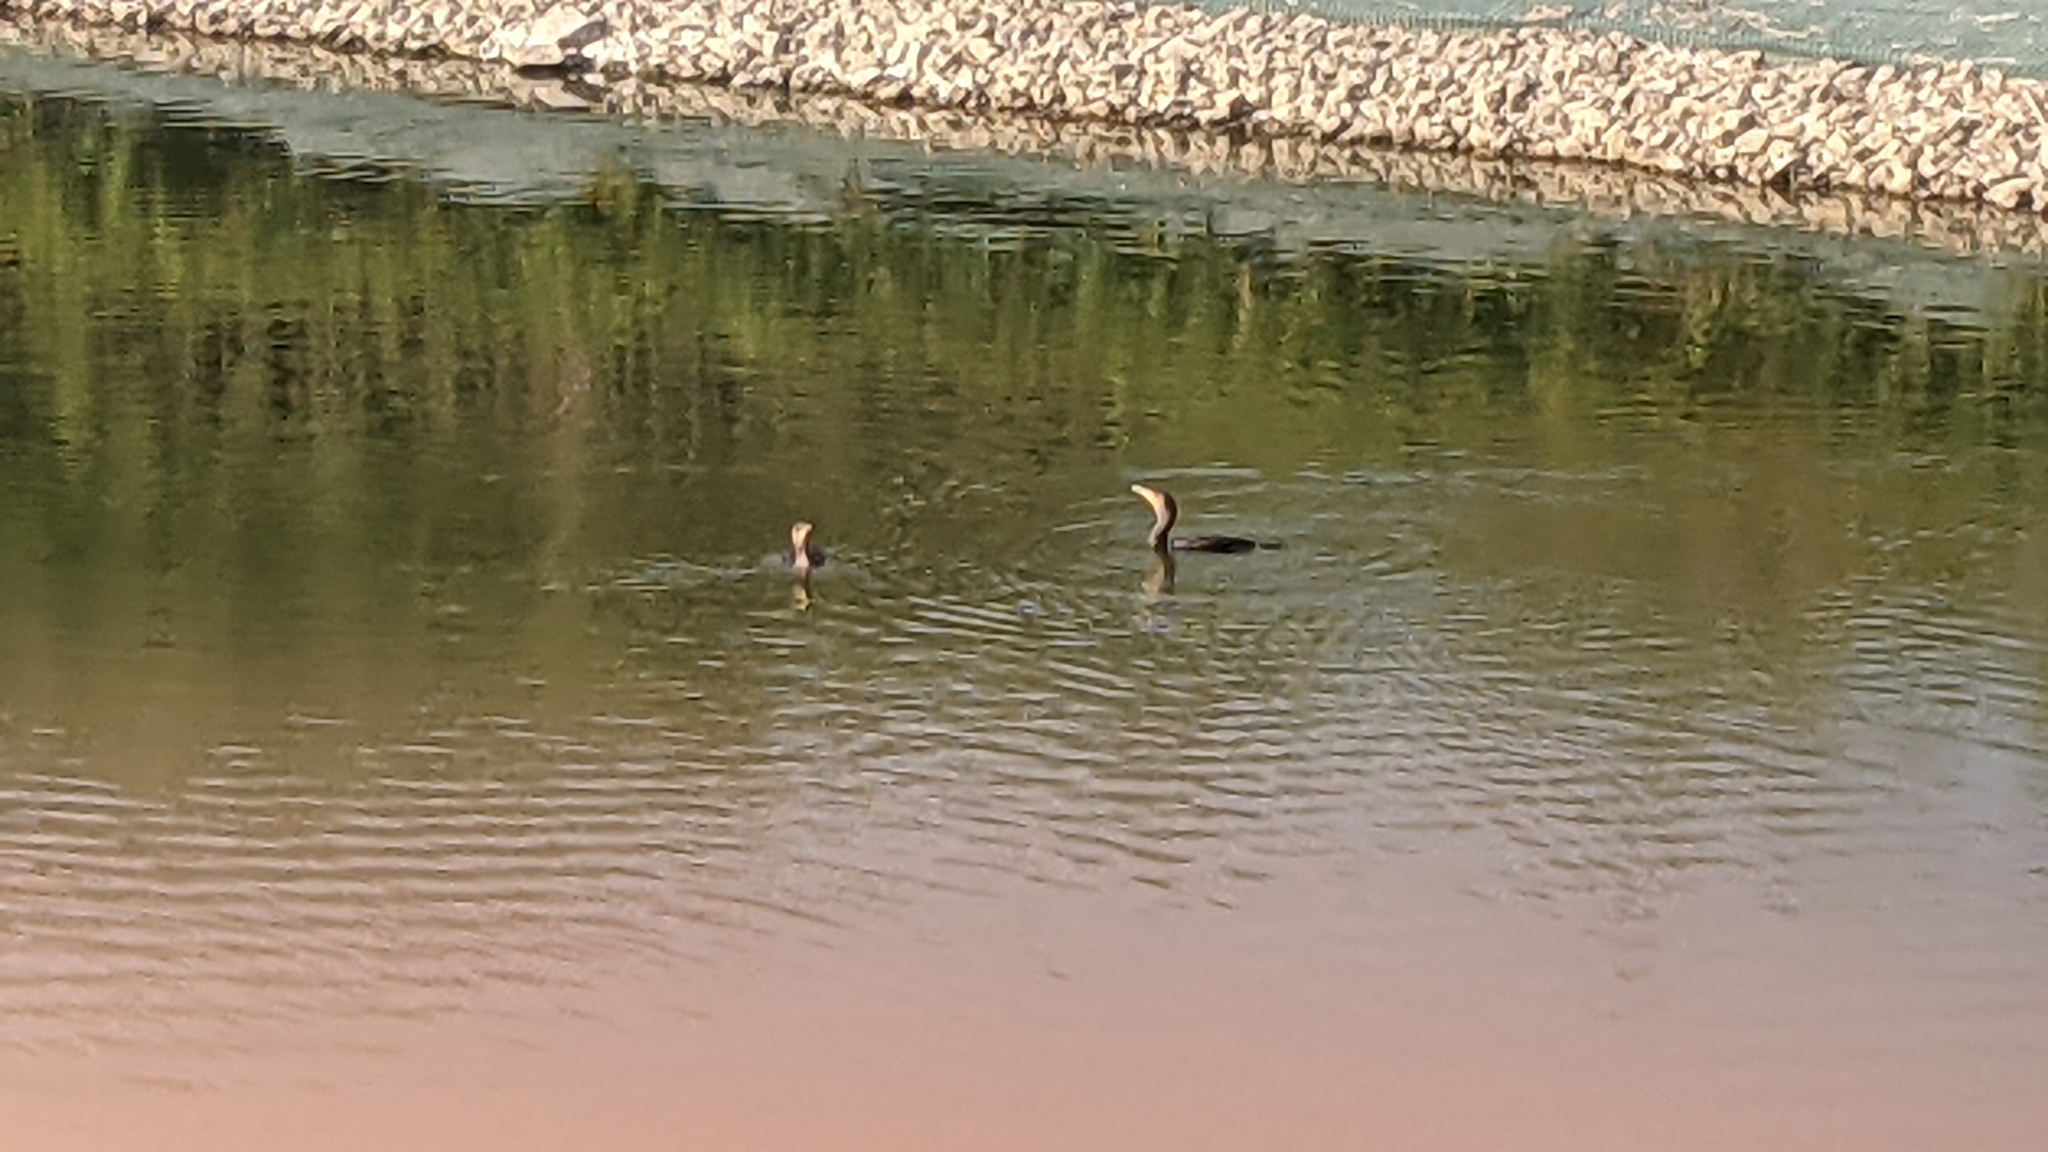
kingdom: Animalia
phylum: Chordata
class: Aves
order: Suliformes
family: Phalacrocoracidae
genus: Phalacrocorax
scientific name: Phalacrocorax auritus
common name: Double-crested cormorant
